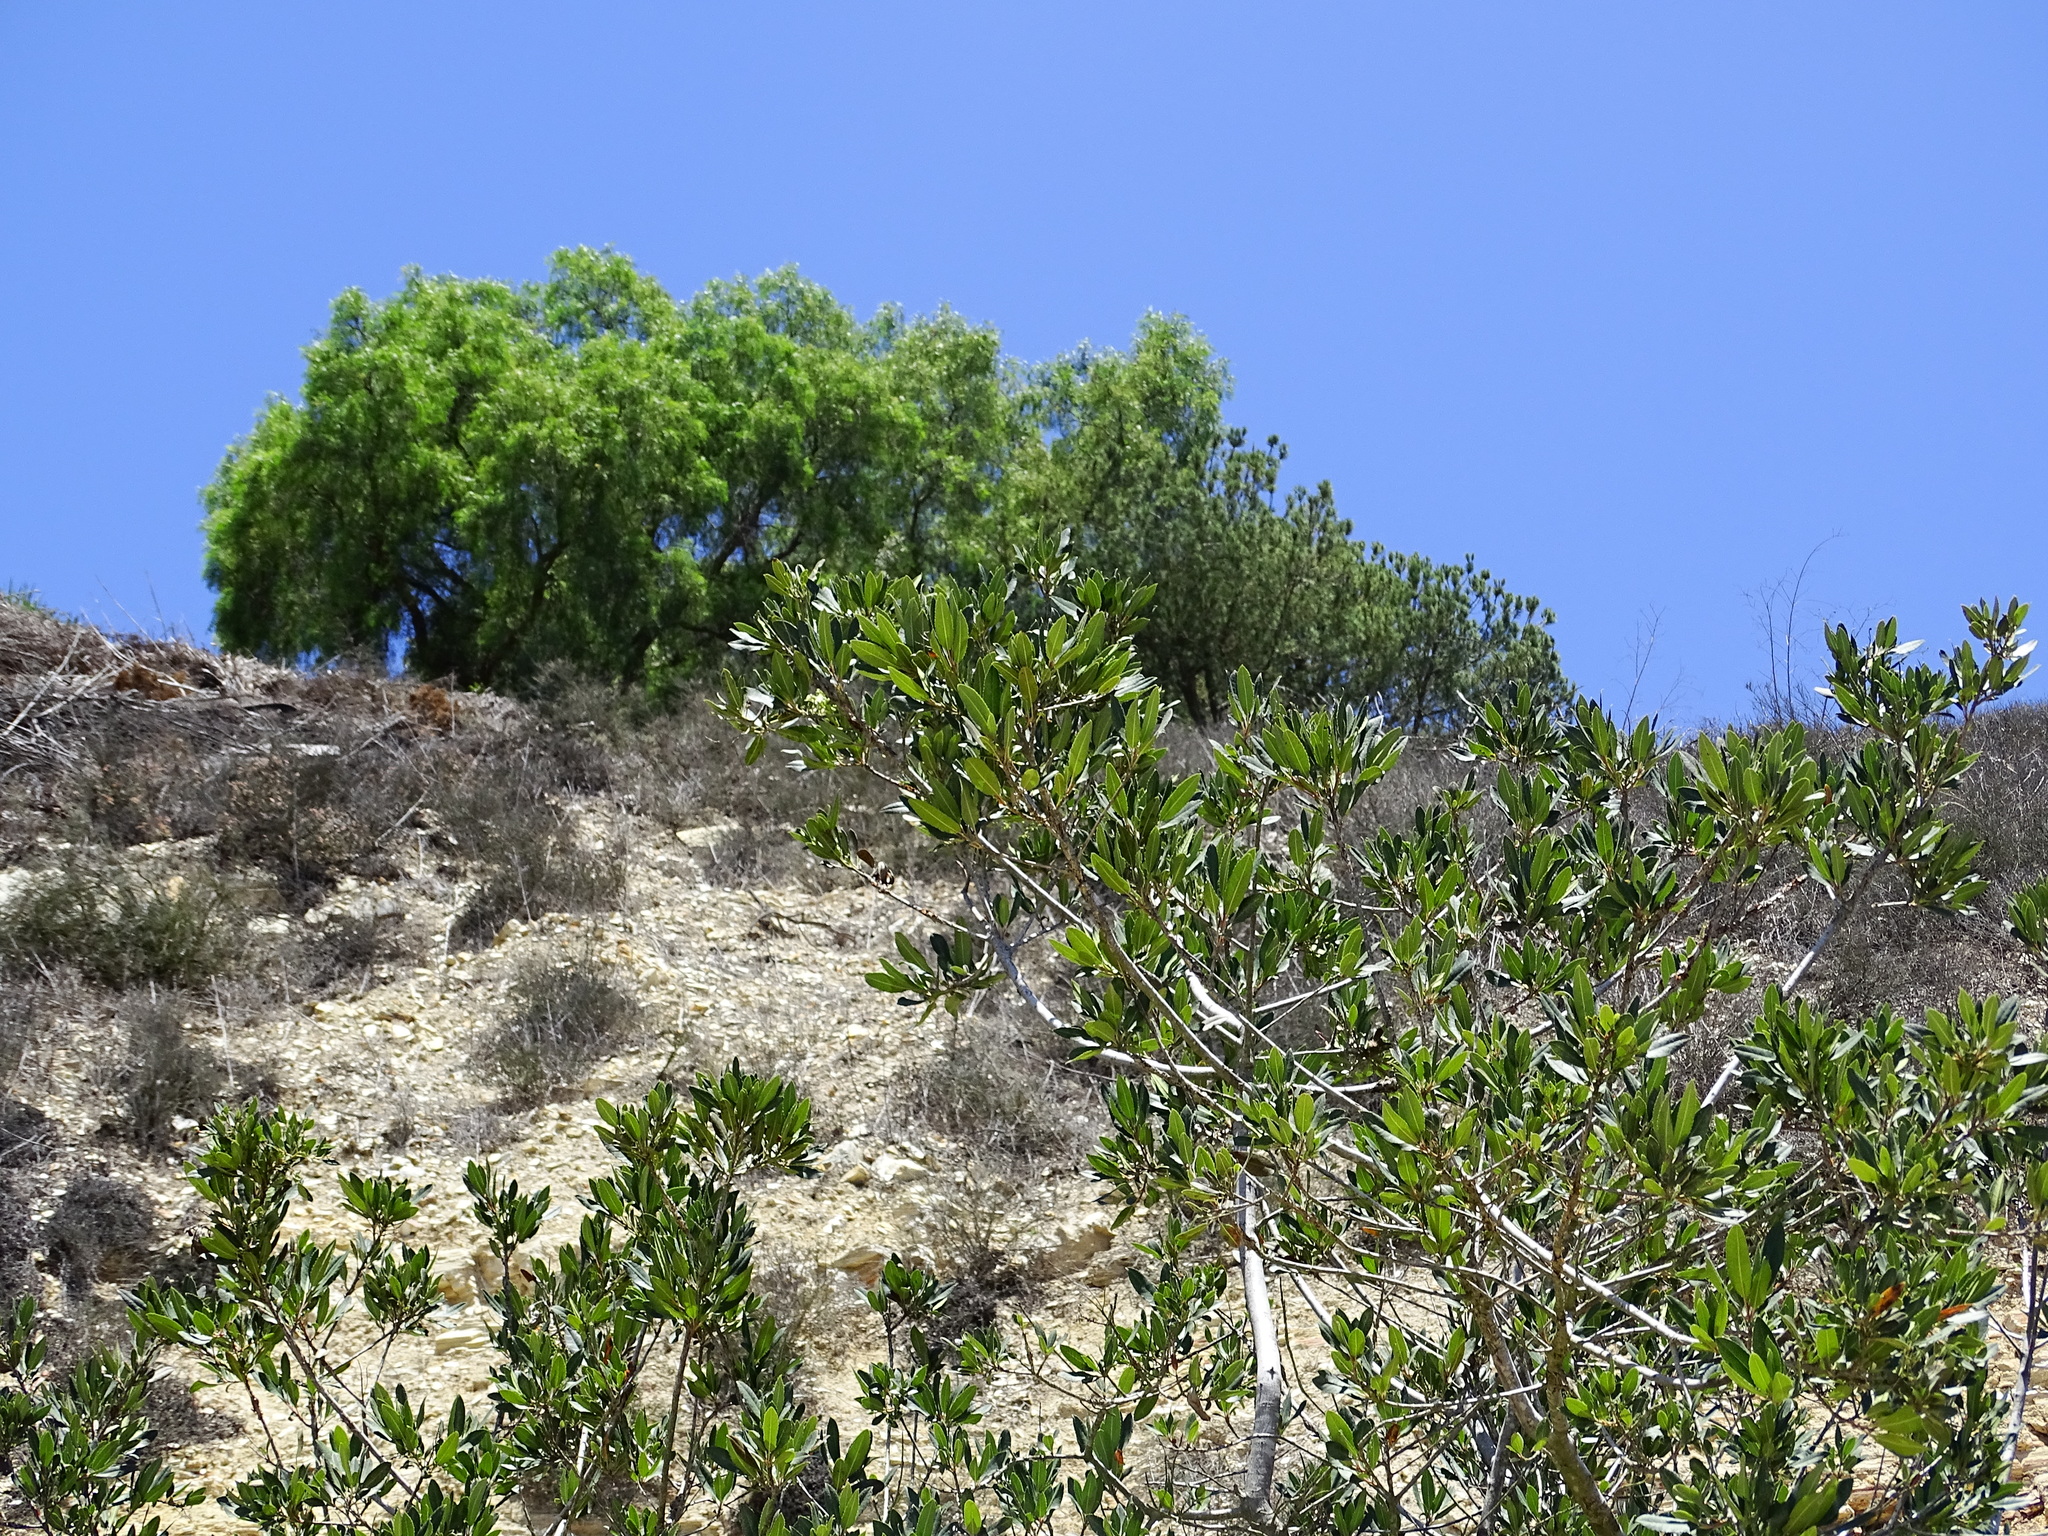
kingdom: Plantae
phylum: Tracheophyta
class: Magnoliopsida
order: Rosales
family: Rosaceae
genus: Heteromeles
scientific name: Heteromeles arbutifolia
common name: California-holly
